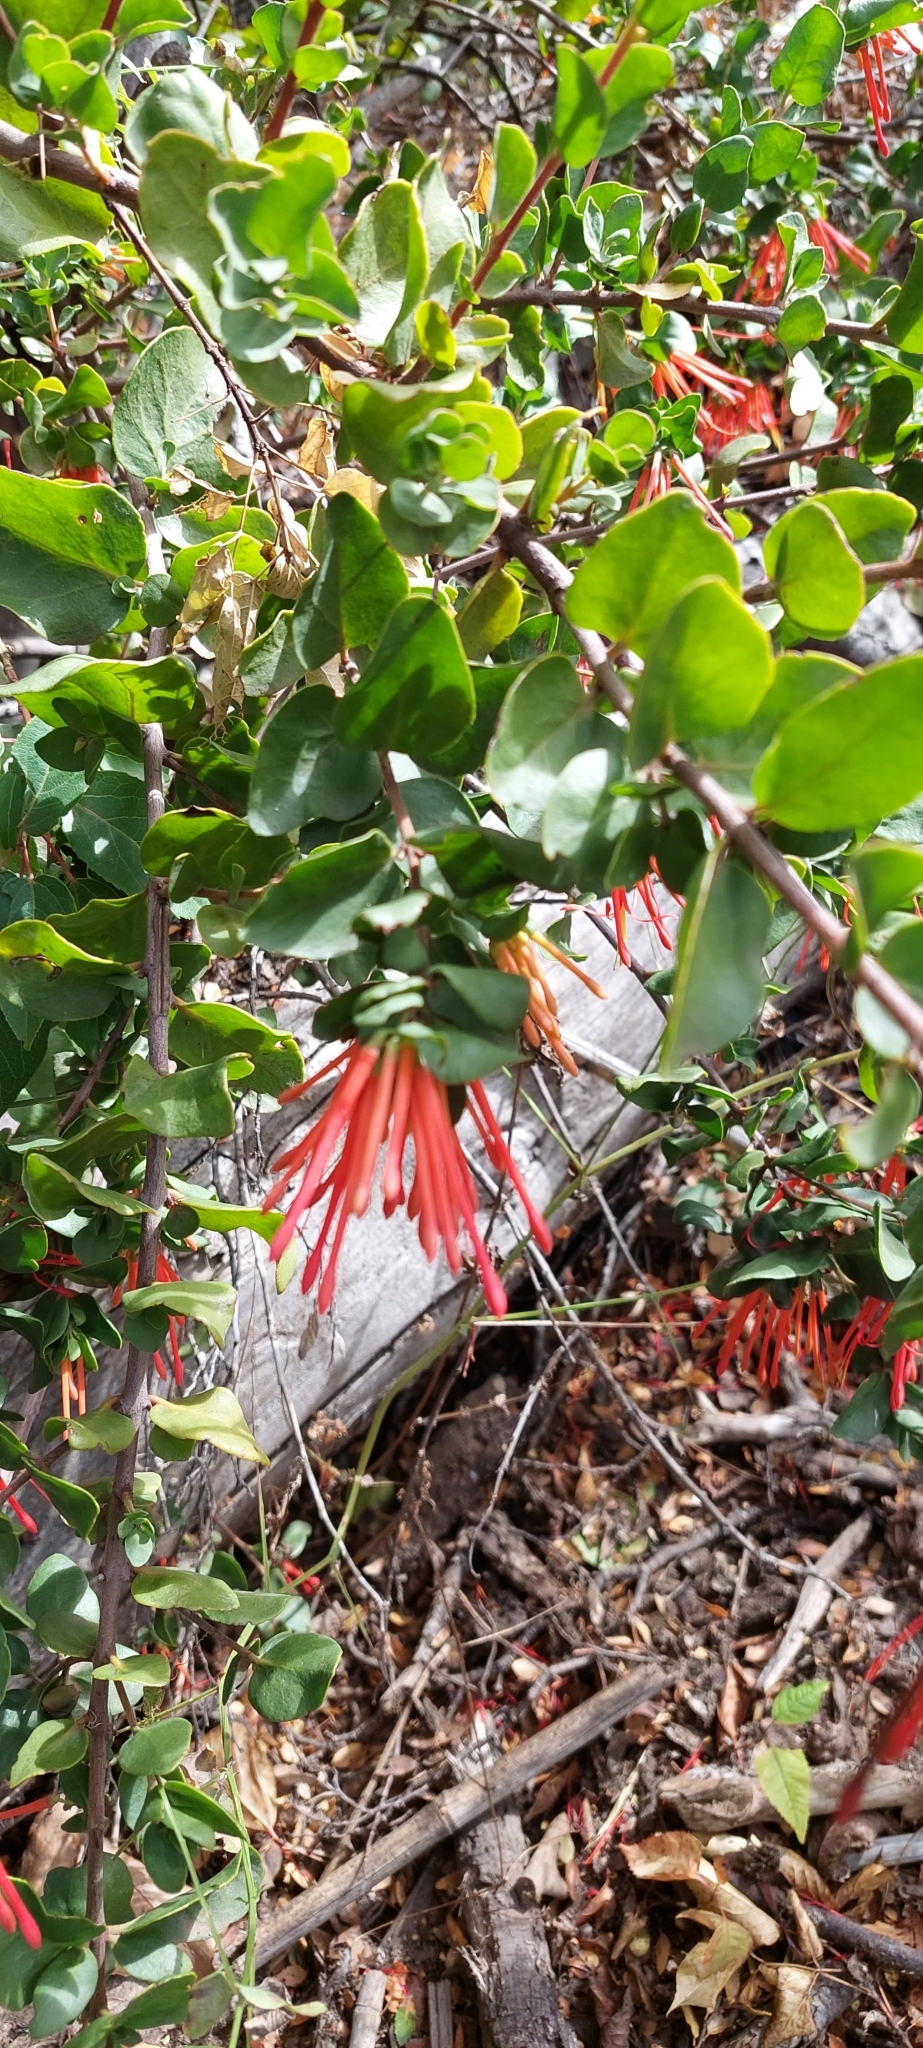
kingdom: Plantae
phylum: Tracheophyta
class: Magnoliopsida
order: Santalales
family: Loranthaceae
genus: Tristerix
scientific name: Tristerix corymbosus
